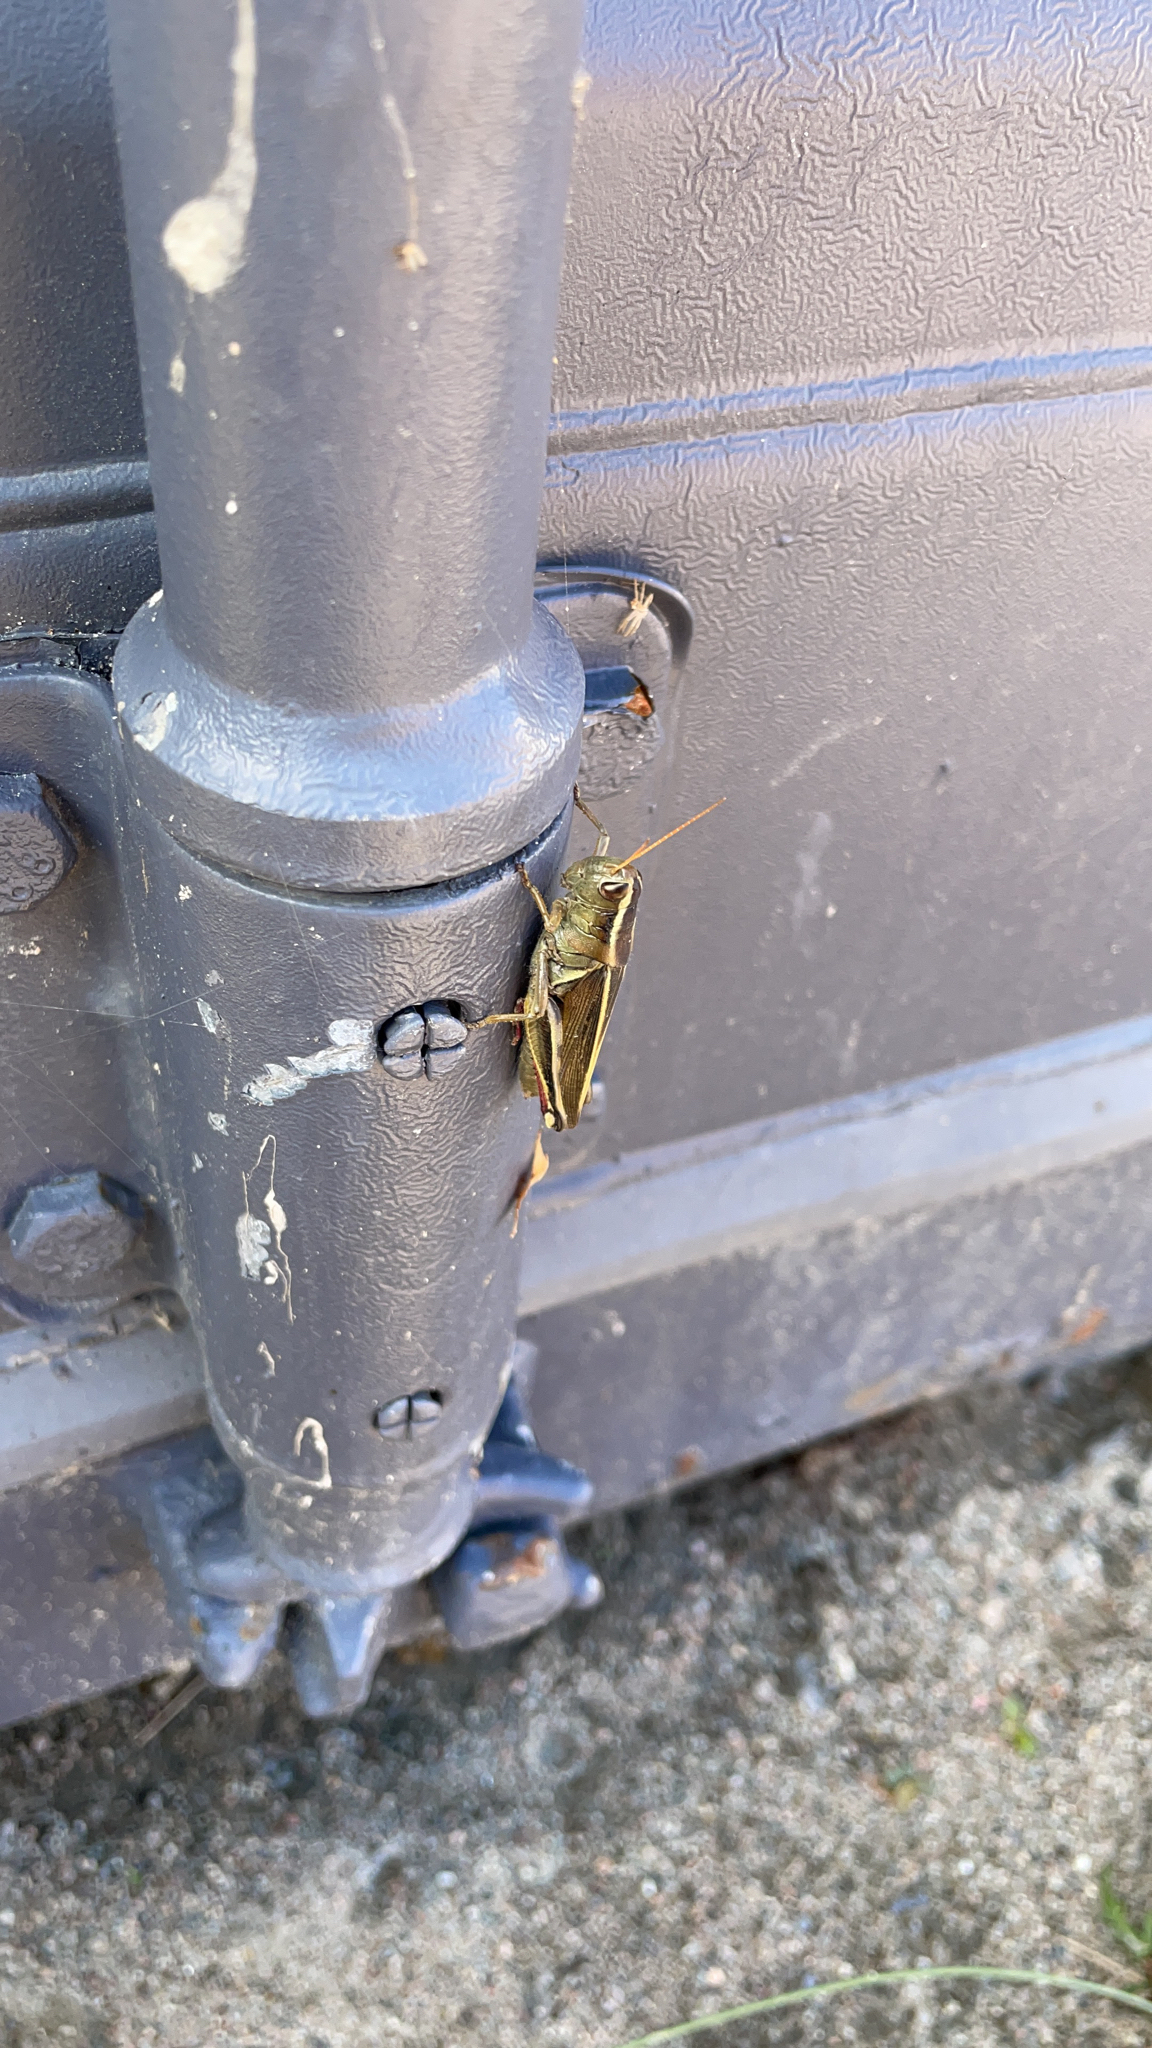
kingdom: Animalia
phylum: Arthropoda
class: Insecta
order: Orthoptera
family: Acrididae
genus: Melanoplus
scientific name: Melanoplus bivittatus
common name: Two-striped grasshopper
